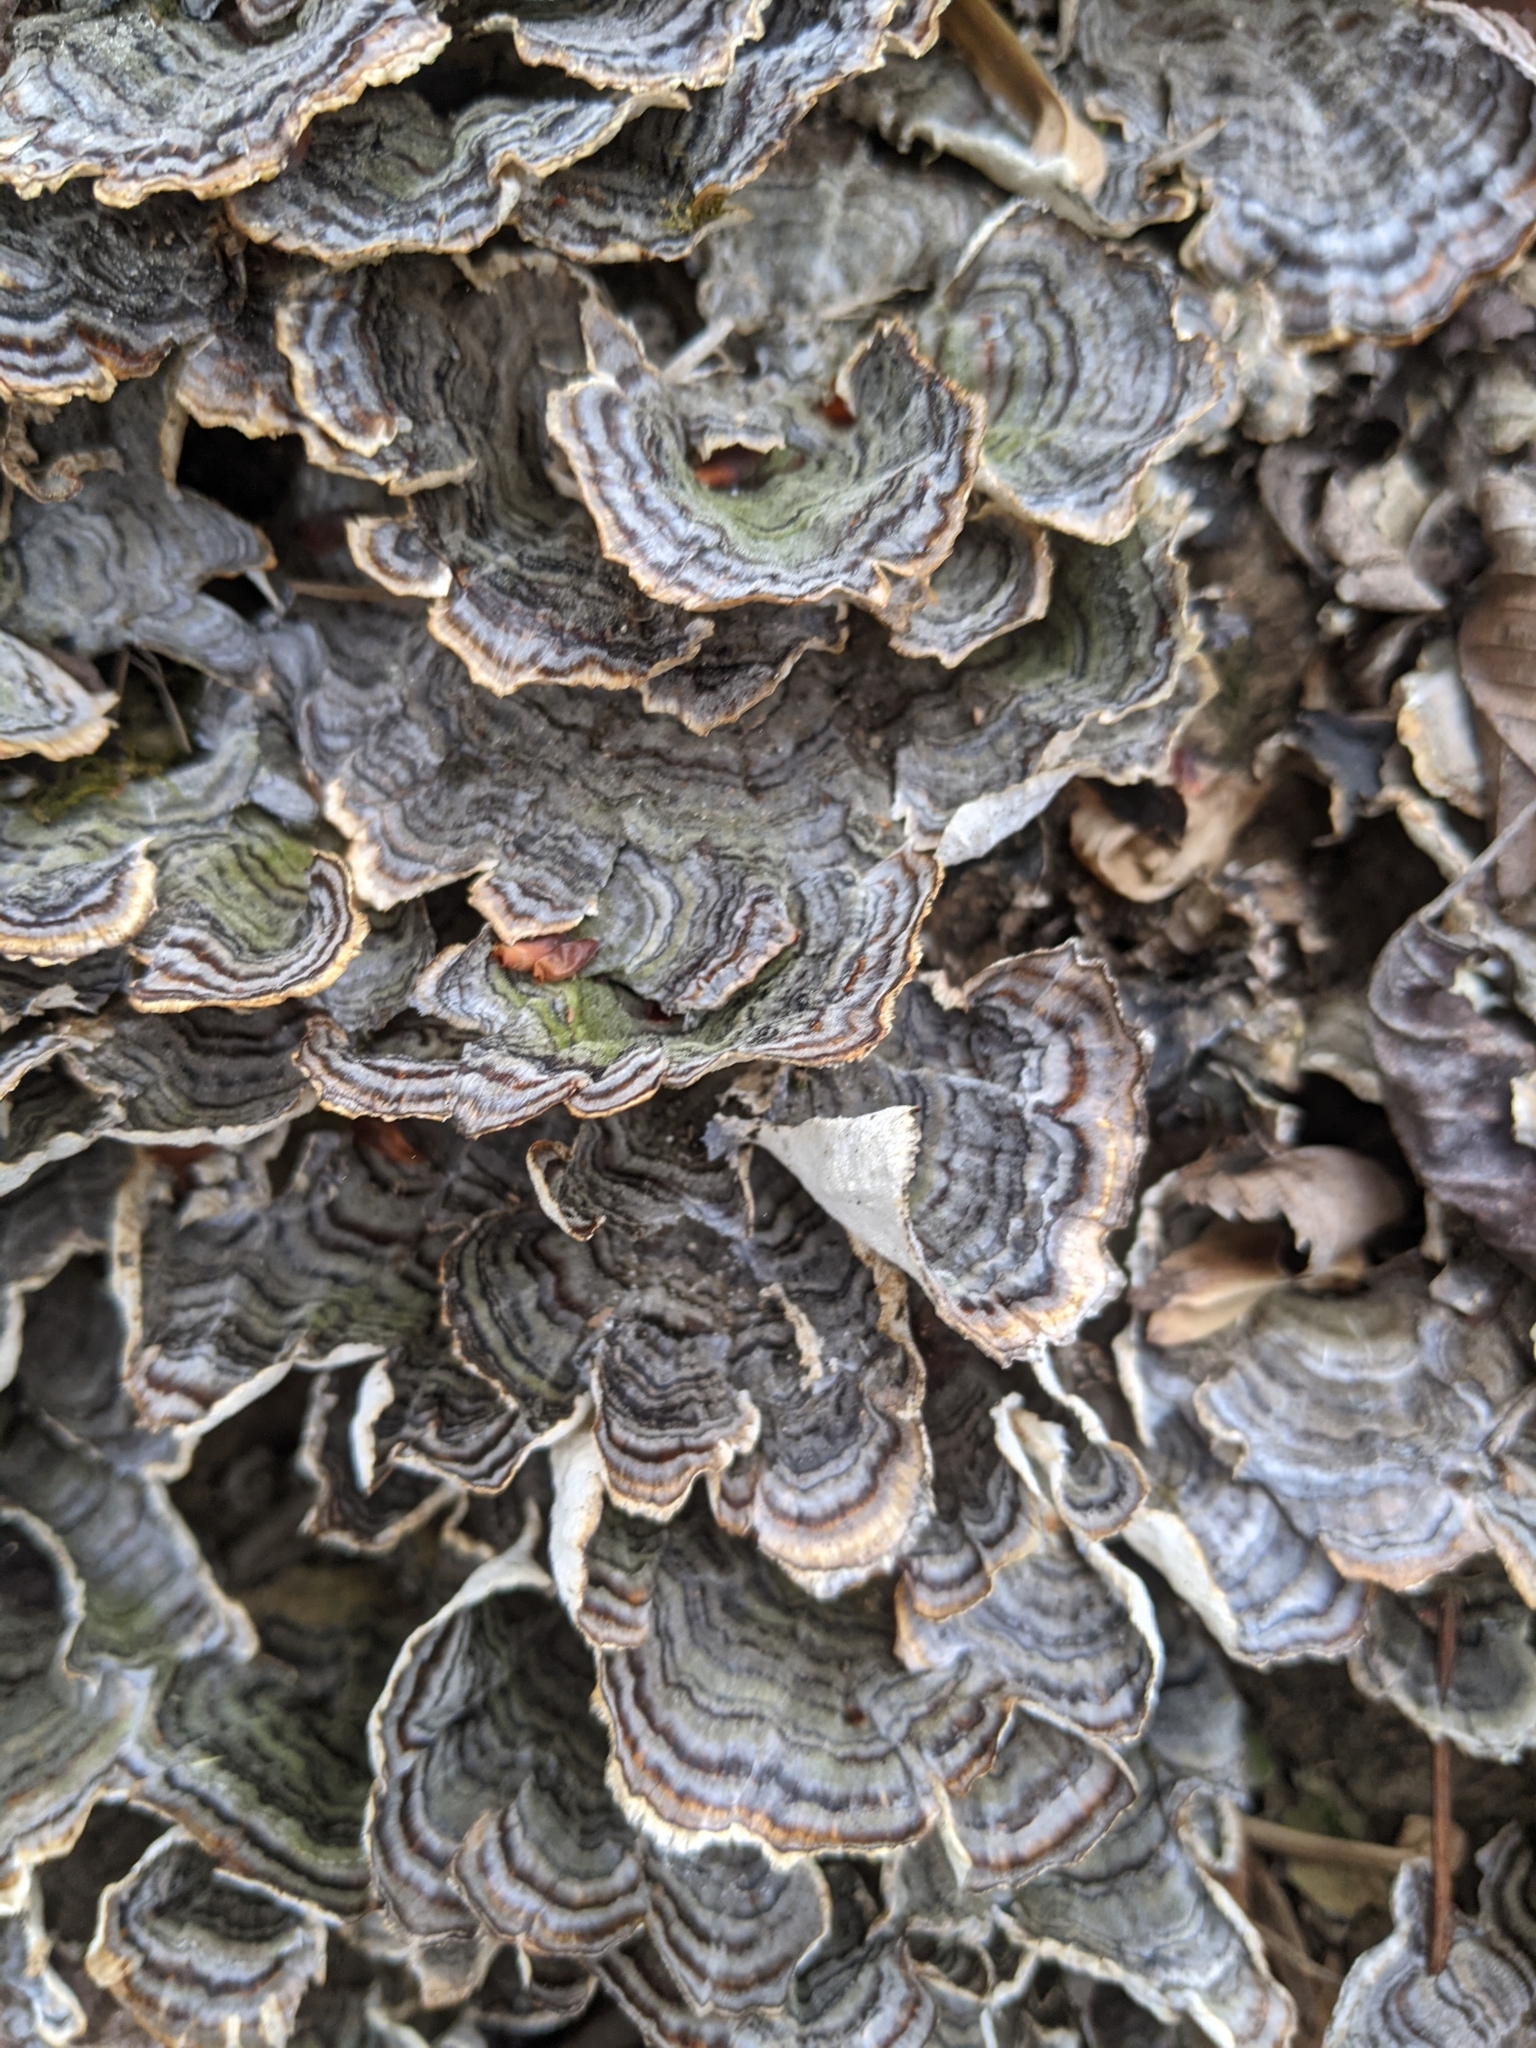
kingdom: Fungi
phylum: Basidiomycota
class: Agaricomycetes
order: Polyporales
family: Polyporaceae
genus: Trametes
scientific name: Trametes versicolor
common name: Turkeytail
